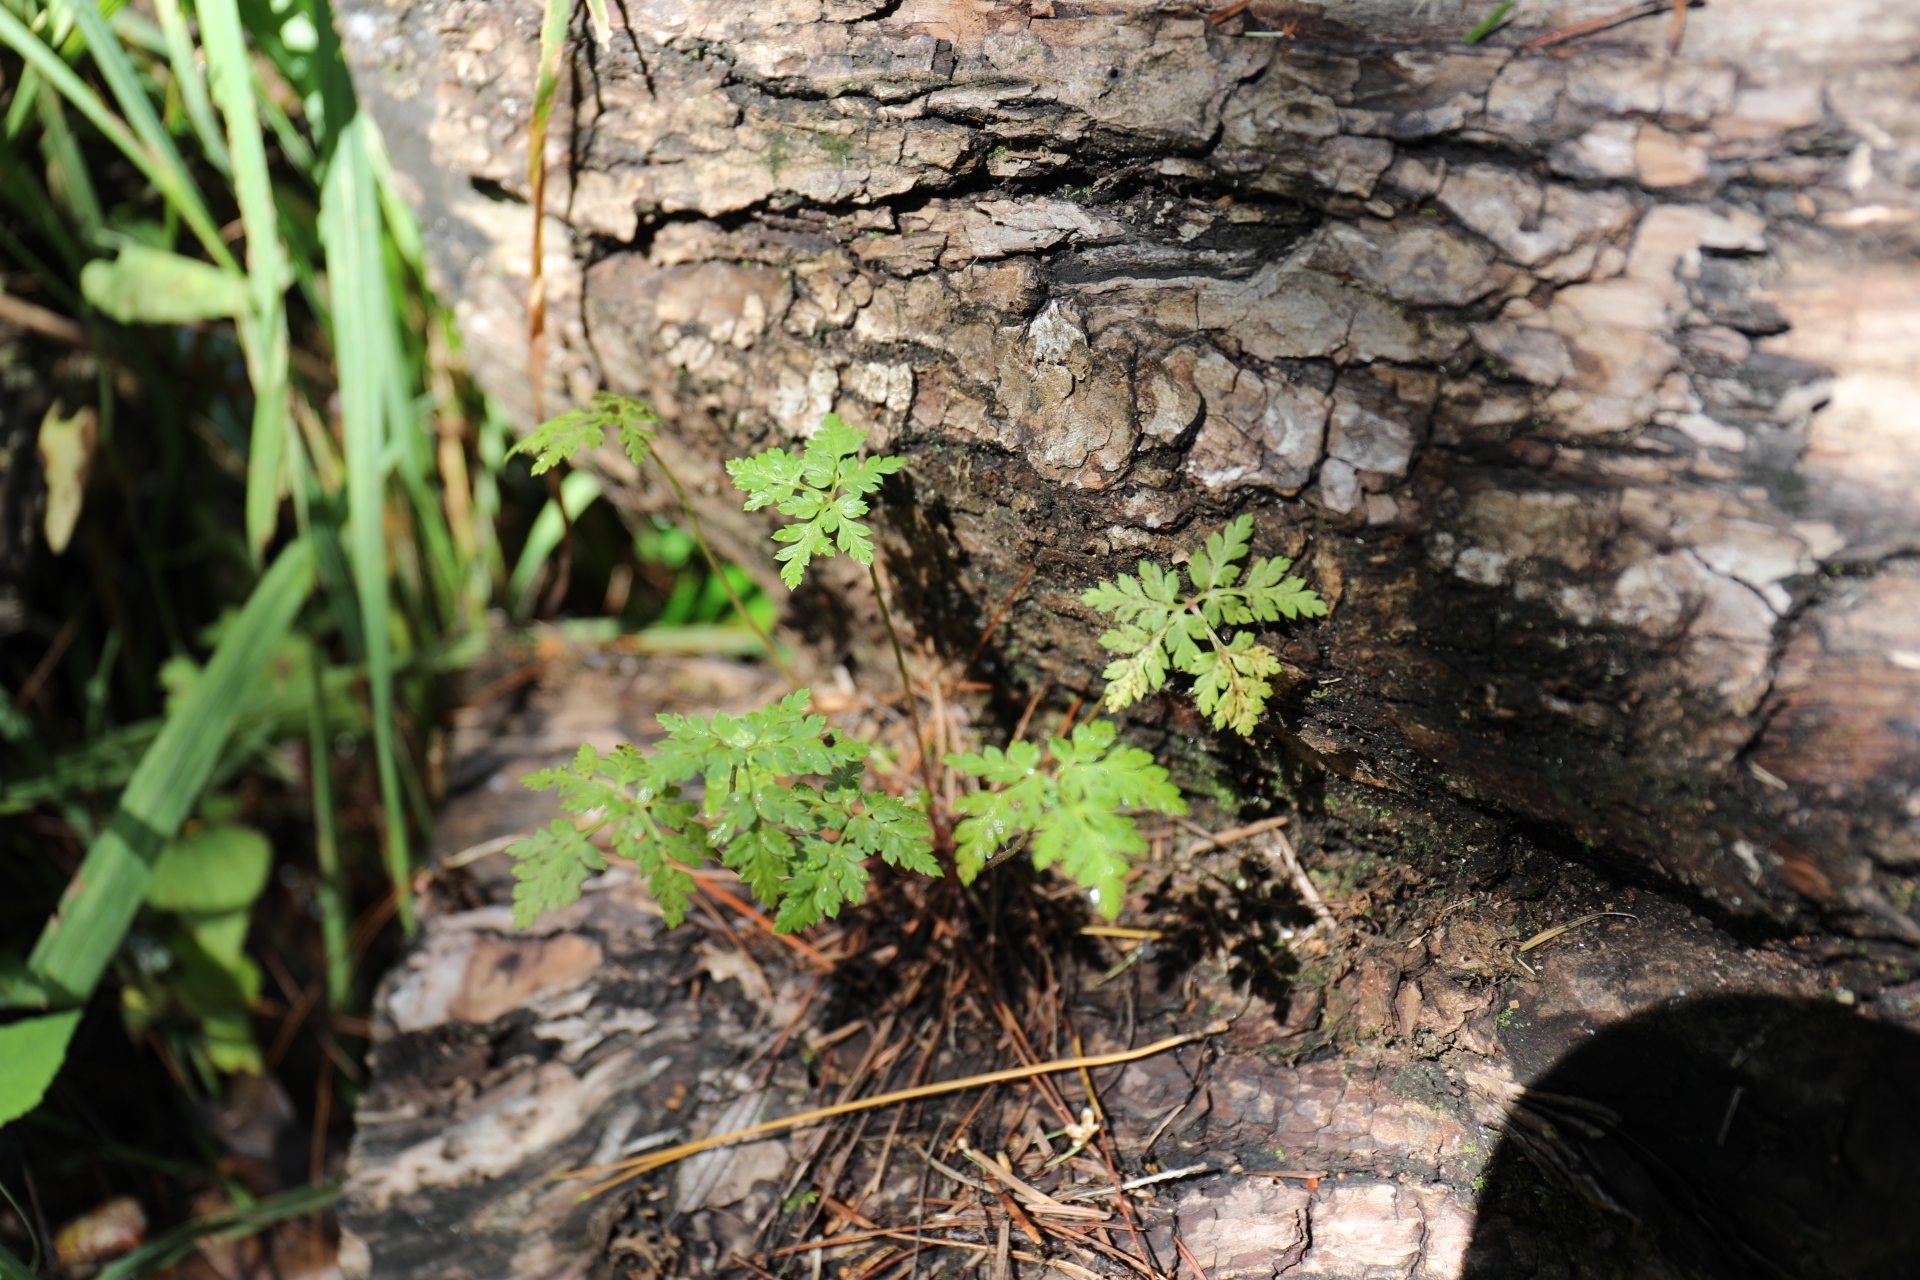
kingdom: Plantae
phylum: Tracheophyta
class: Magnoliopsida
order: Geraniales
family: Geraniaceae
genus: Geranium
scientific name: Geranium robertianum
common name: Herb-robert
